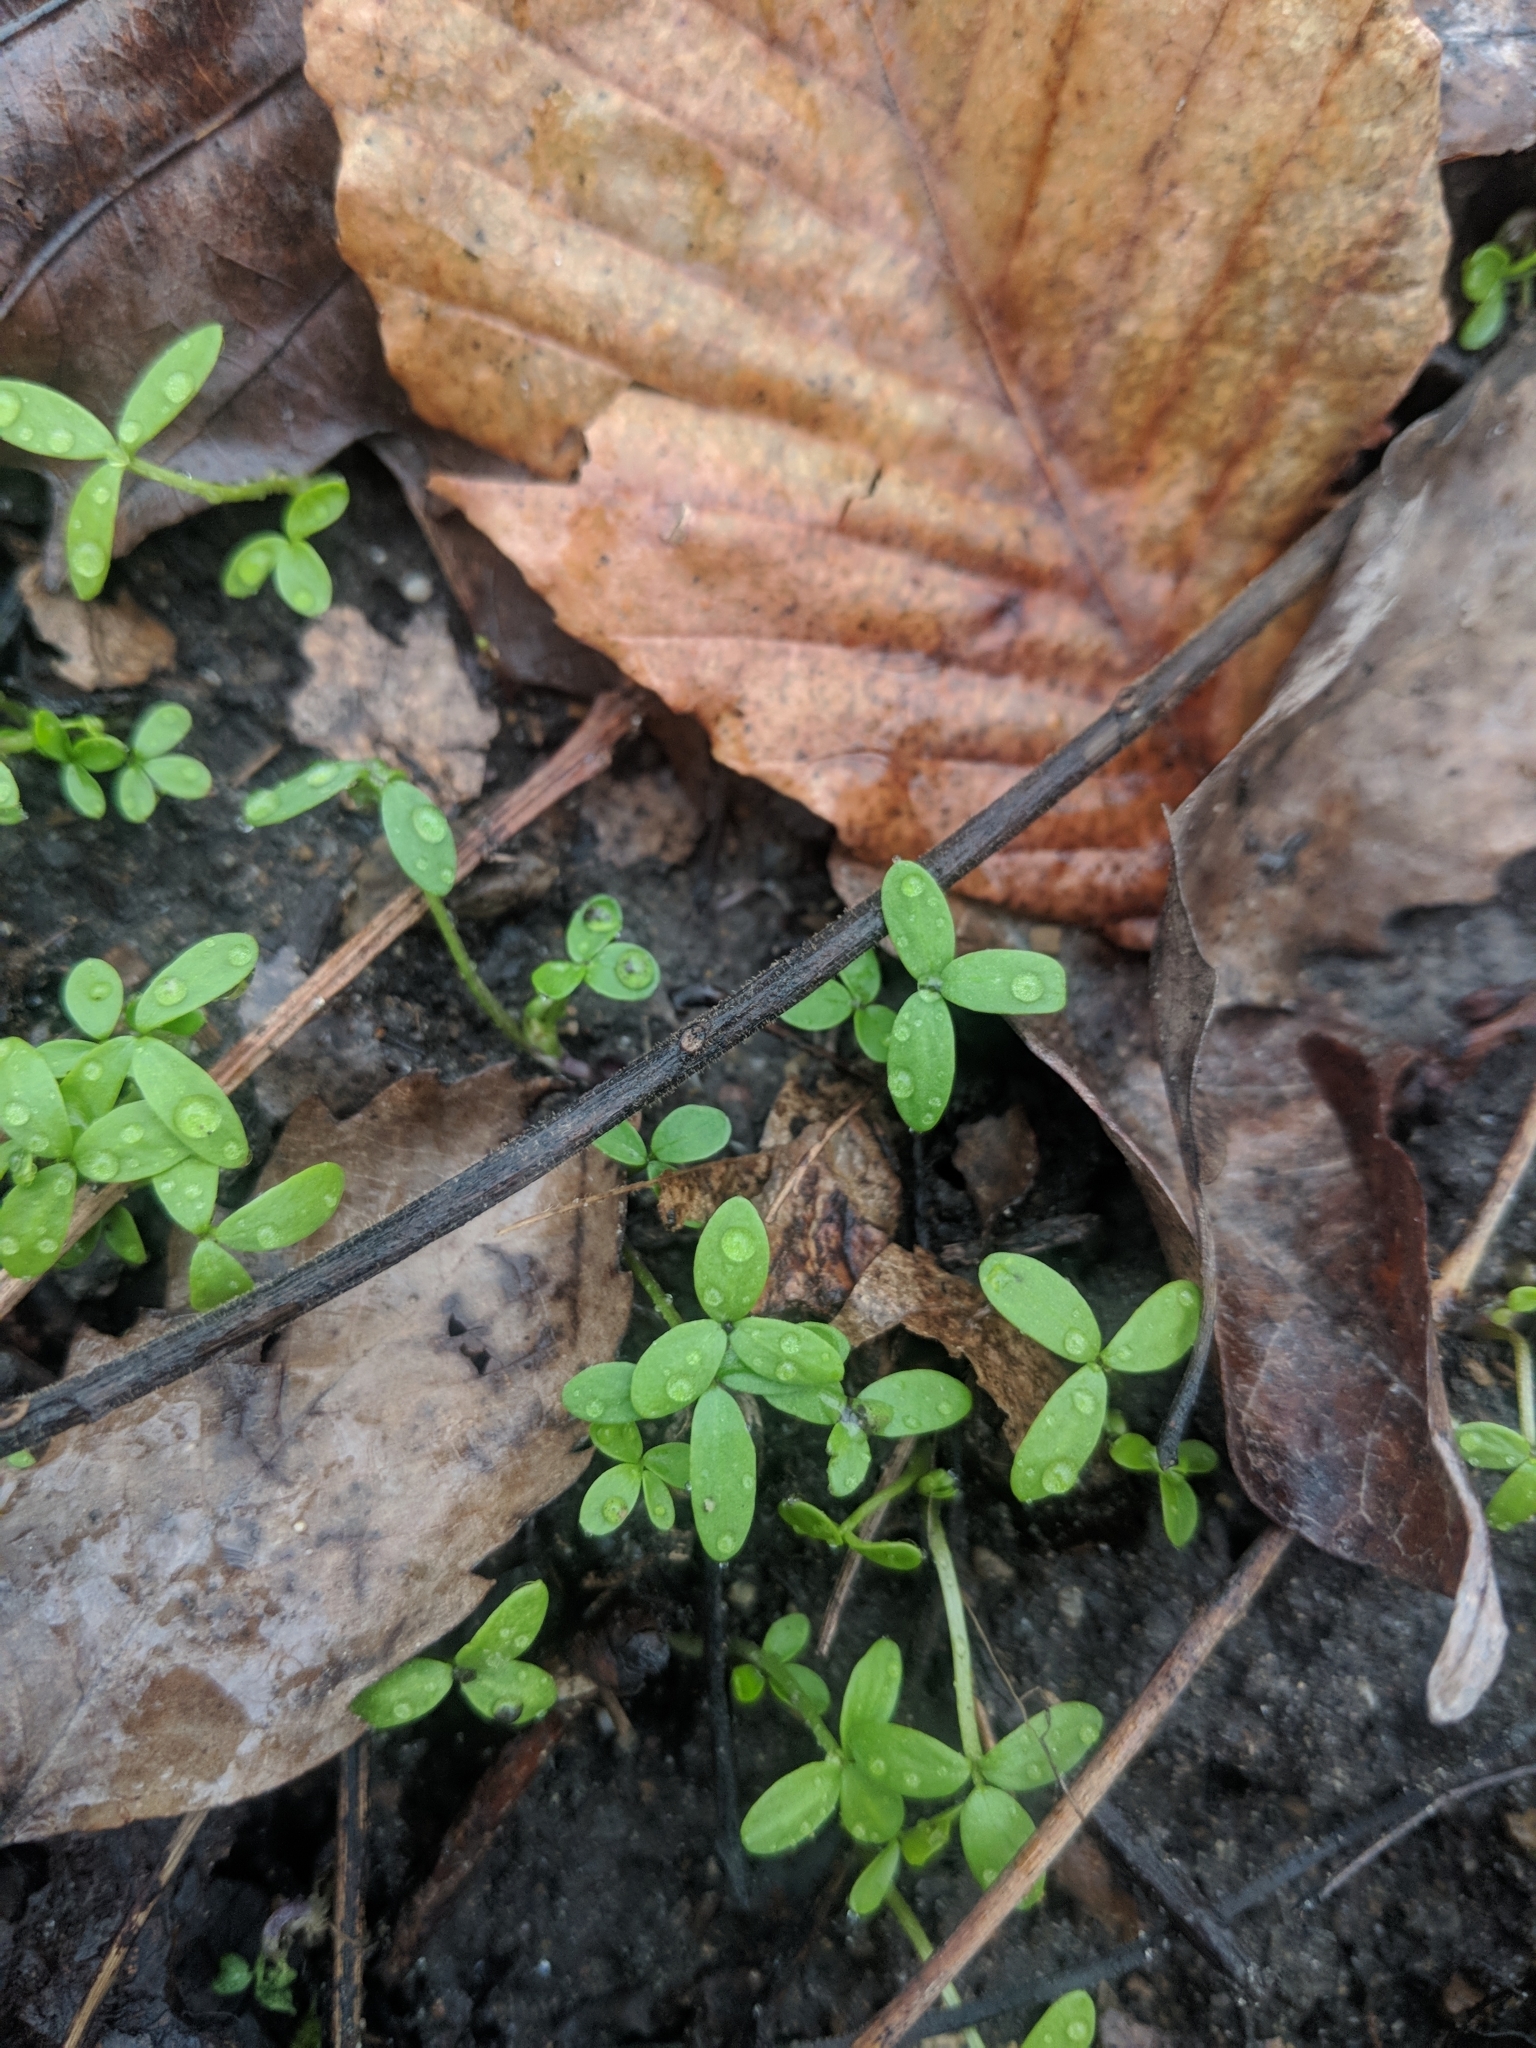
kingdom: Plantae
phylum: Tracheophyta
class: Magnoliopsida
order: Brassicales
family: Limnanthaceae
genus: Floerkea
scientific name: Floerkea proserpinacoides
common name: False mermaid
